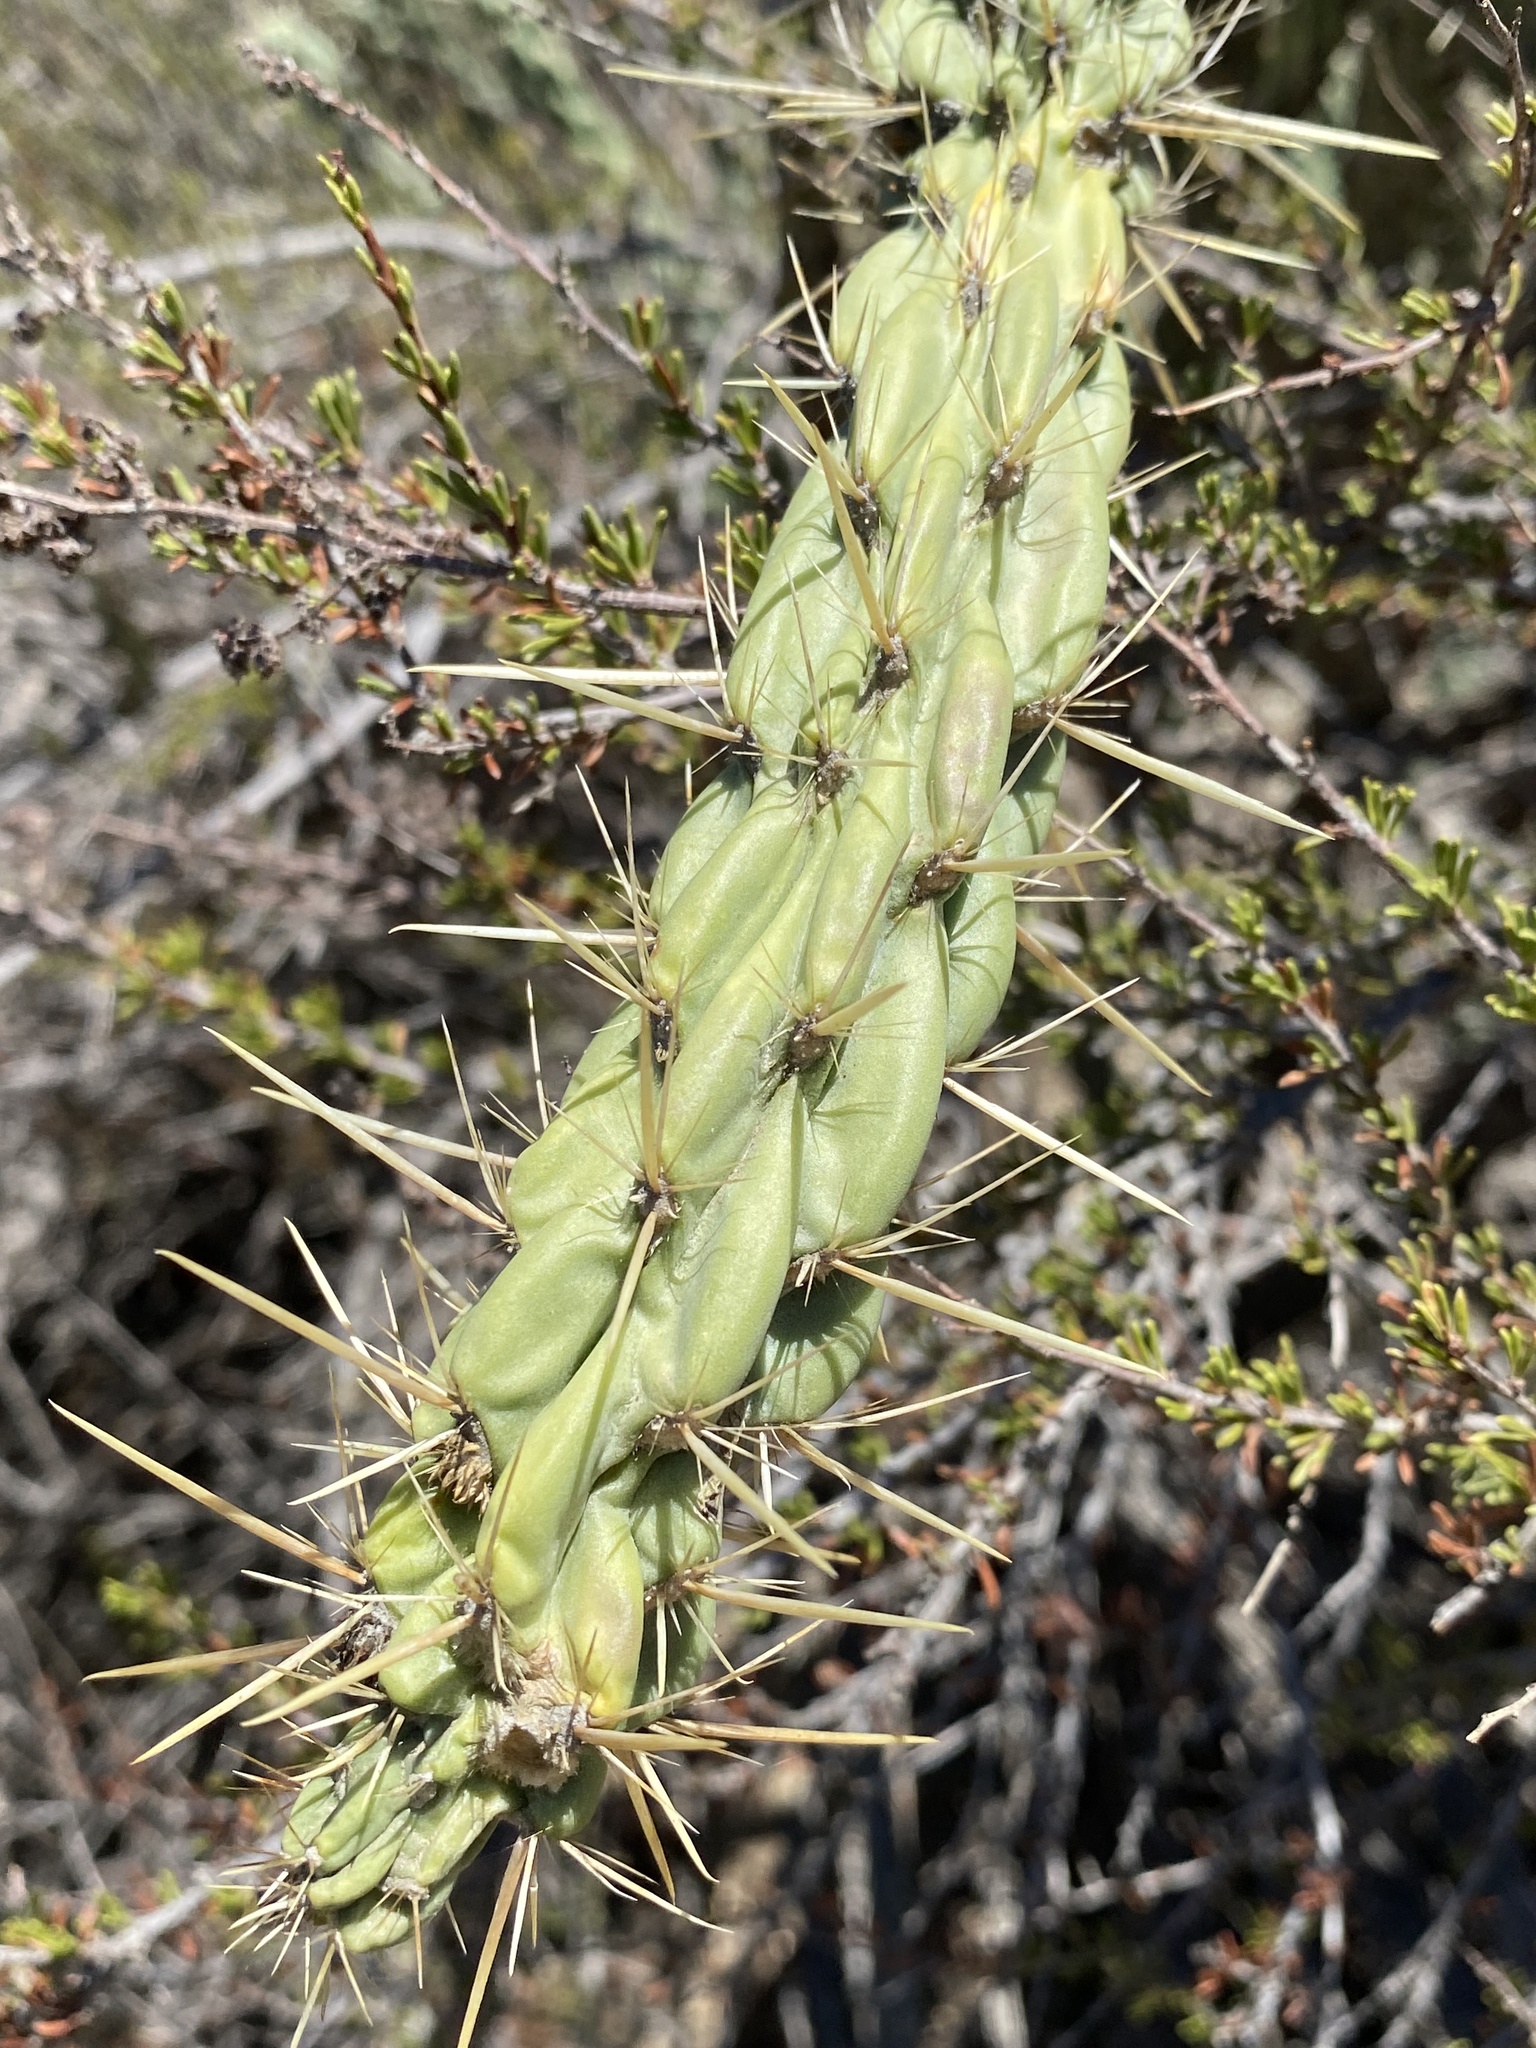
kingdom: Plantae
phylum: Tracheophyta
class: Magnoliopsida
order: Caryophyllales
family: Cactaceae
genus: Cylindropuntia
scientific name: Cylindropuntia bernardina
